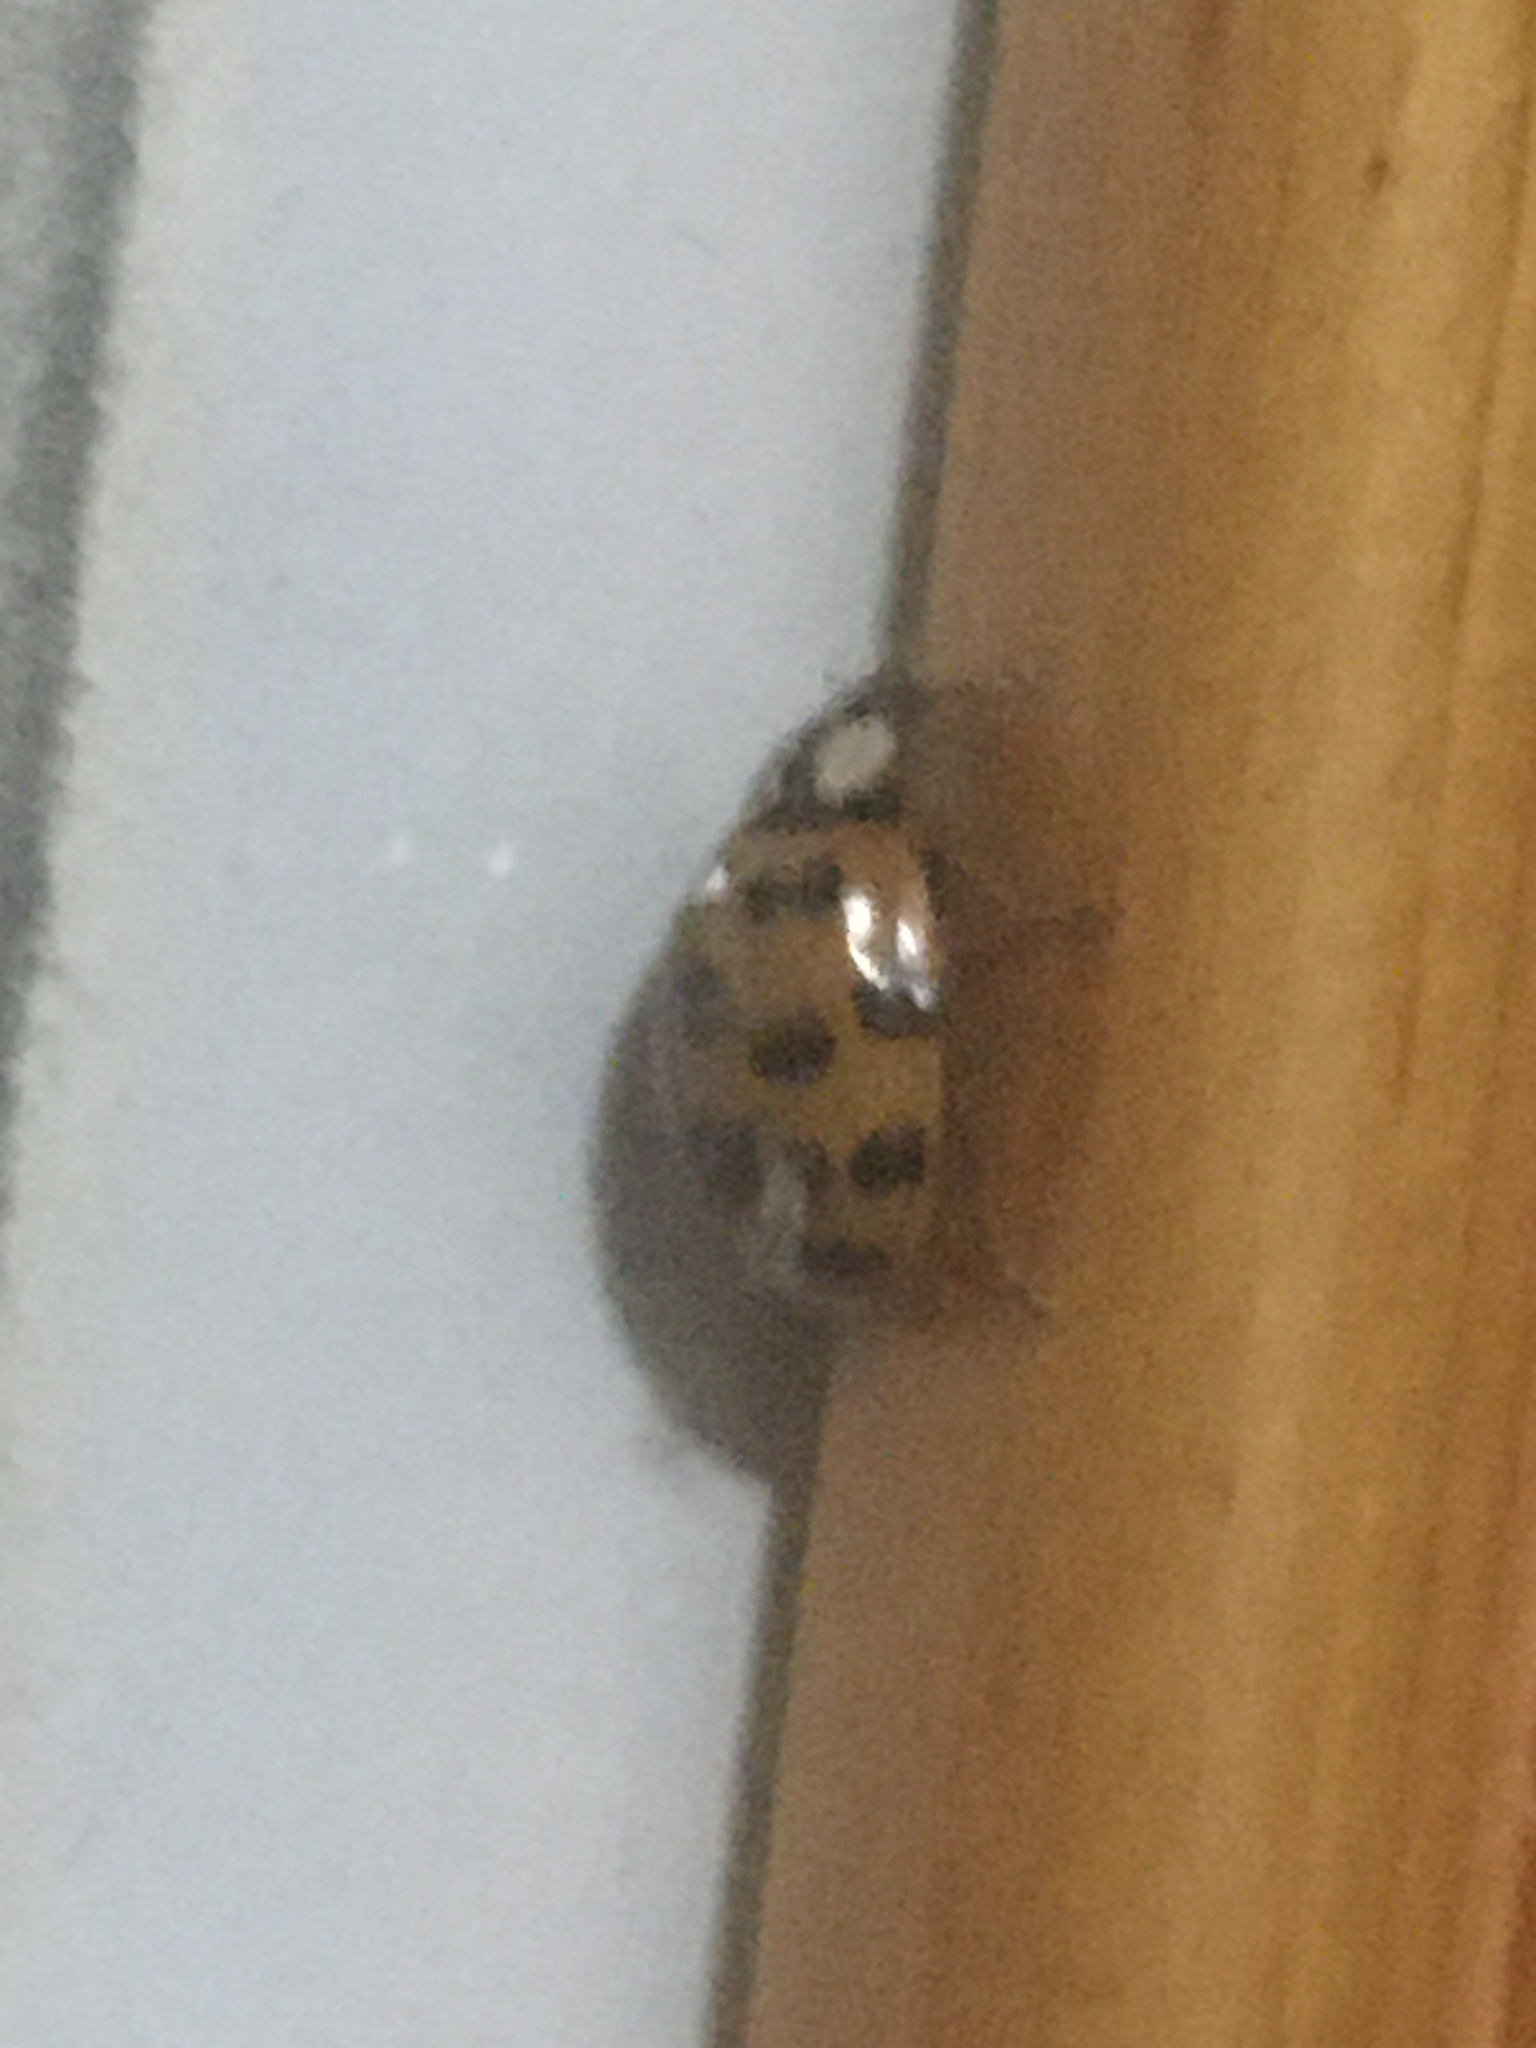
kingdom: Animalia
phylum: Arthropoda
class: Insecta
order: Coleoptera
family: Coccinellidae
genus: Harmonia
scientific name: Harmonia axyridis
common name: Harlequin ladybird
